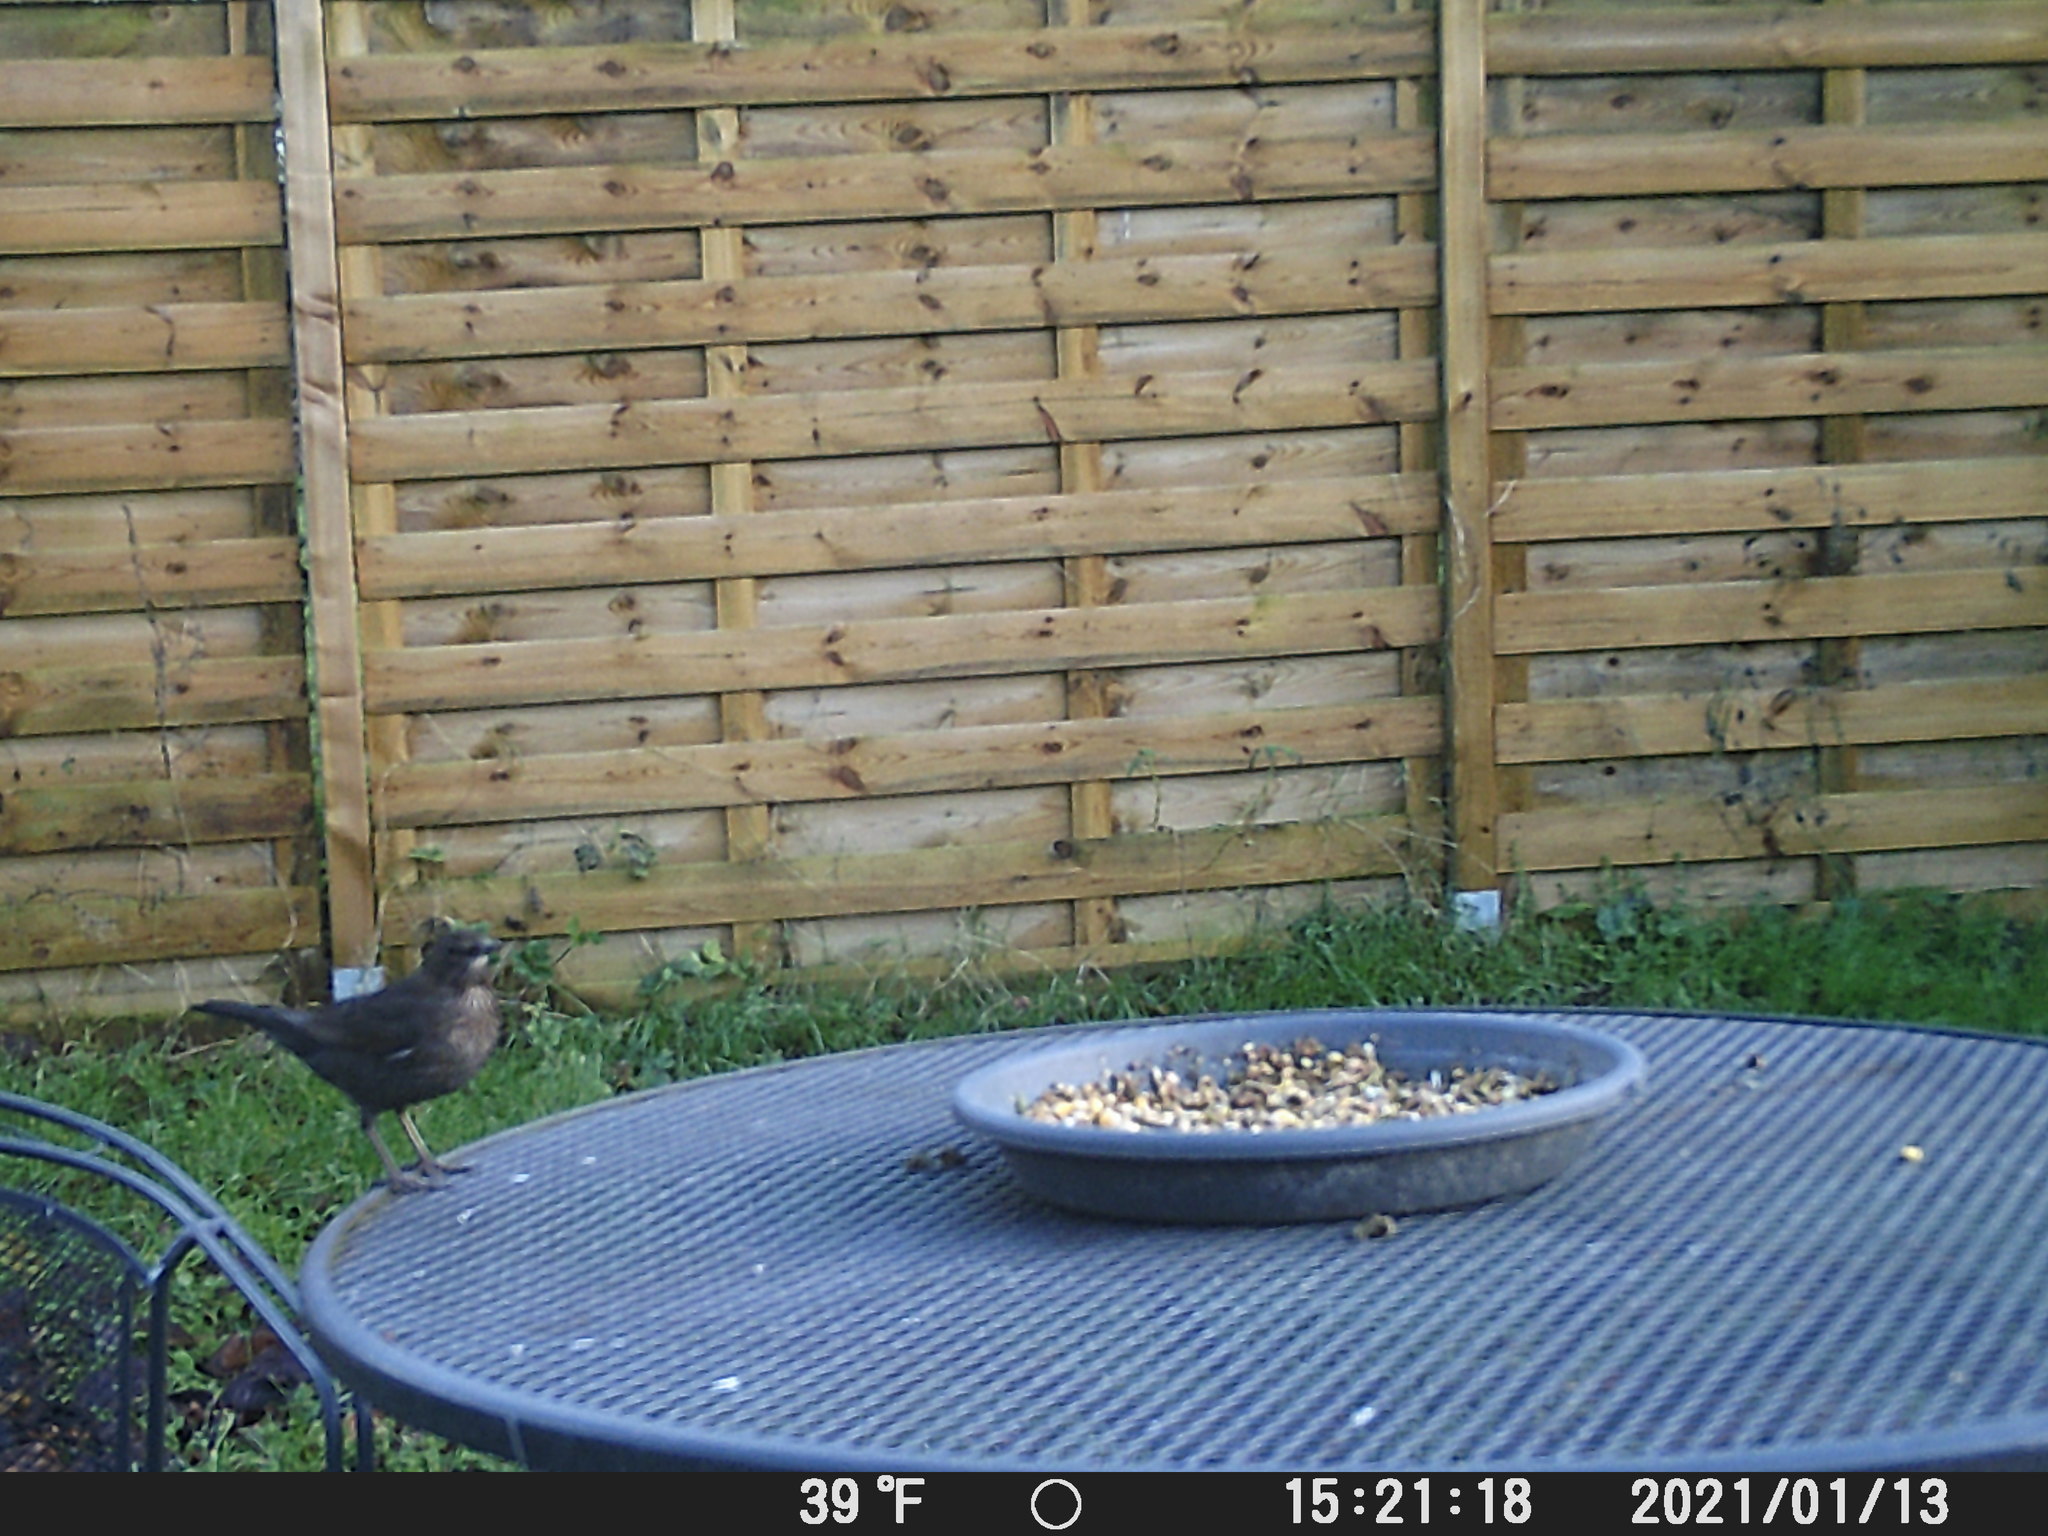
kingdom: Animalia
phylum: Chordata
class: Aves
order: Passeriformes
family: Turdidae
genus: Turdus
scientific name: Turdus merula
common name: Common blackbird
